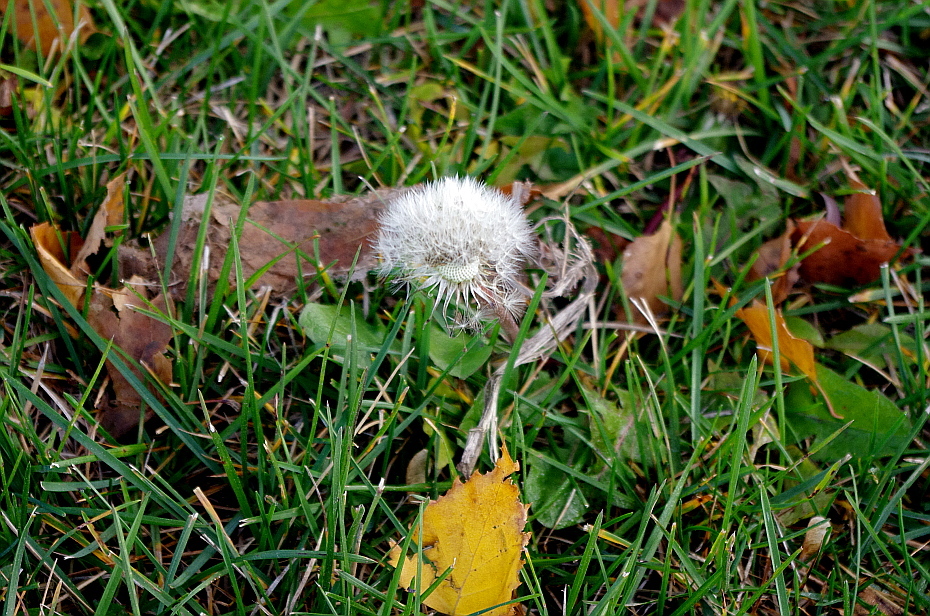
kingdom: Plantae
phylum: Tracheophyta
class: Magnoliopsida
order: Asterales
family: Asteraceae
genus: Taraxacum
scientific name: Taraxacum officinale
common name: Common dandelion
